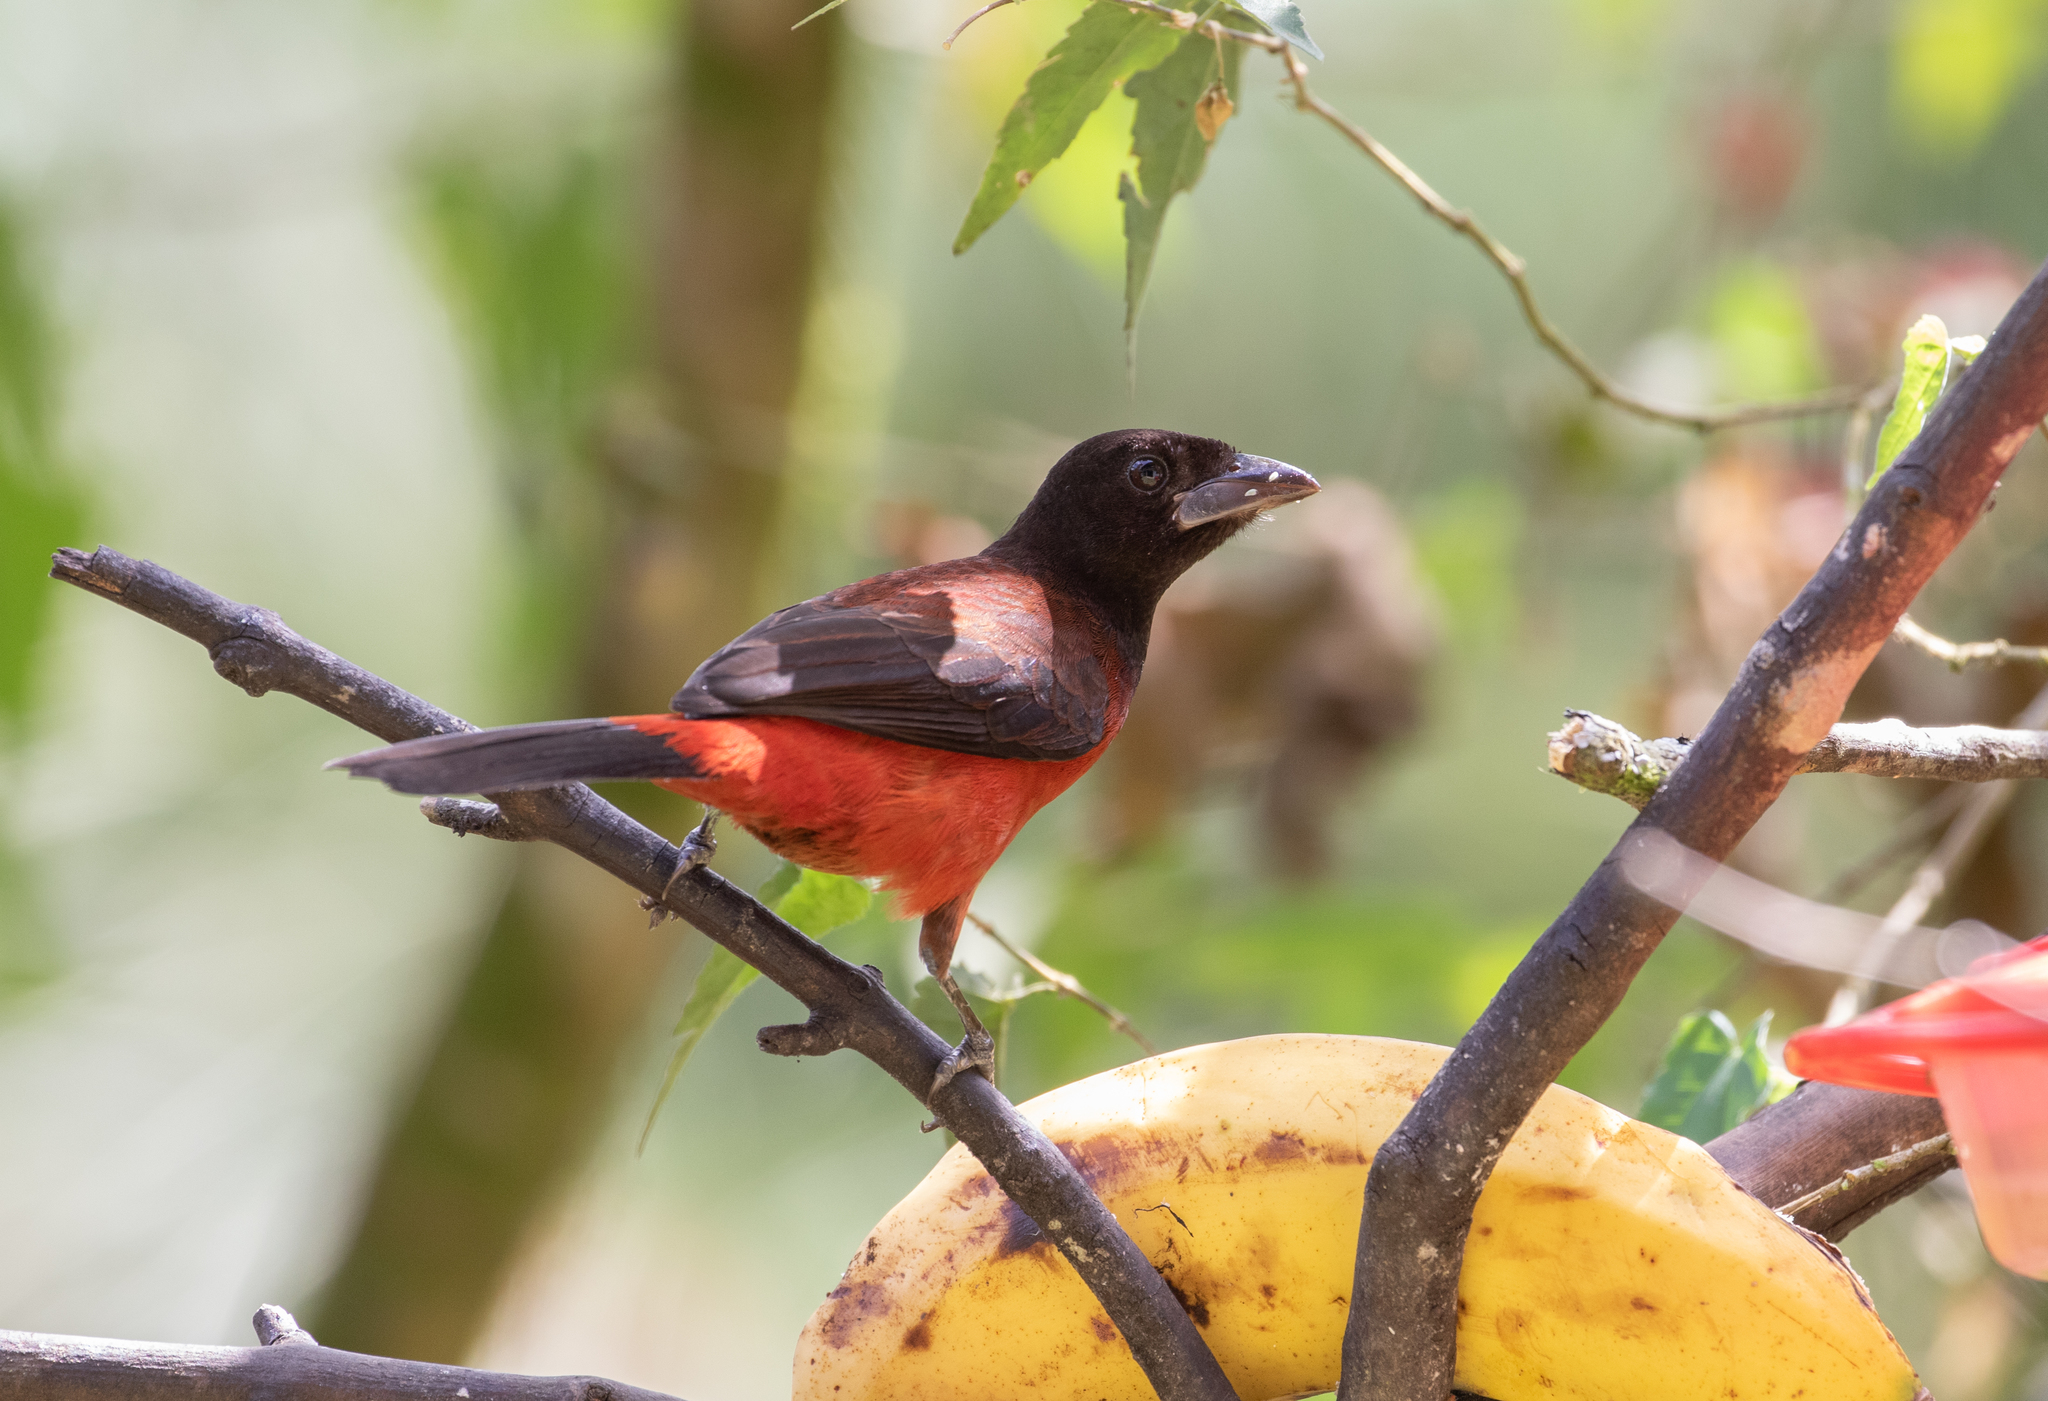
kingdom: Animalia
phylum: Chordata
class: Aves
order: Passeriformes
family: Thraupidae
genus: Ramphocelus
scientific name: Ramphocelus dimidiatus
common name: Crimson-backed tanager
